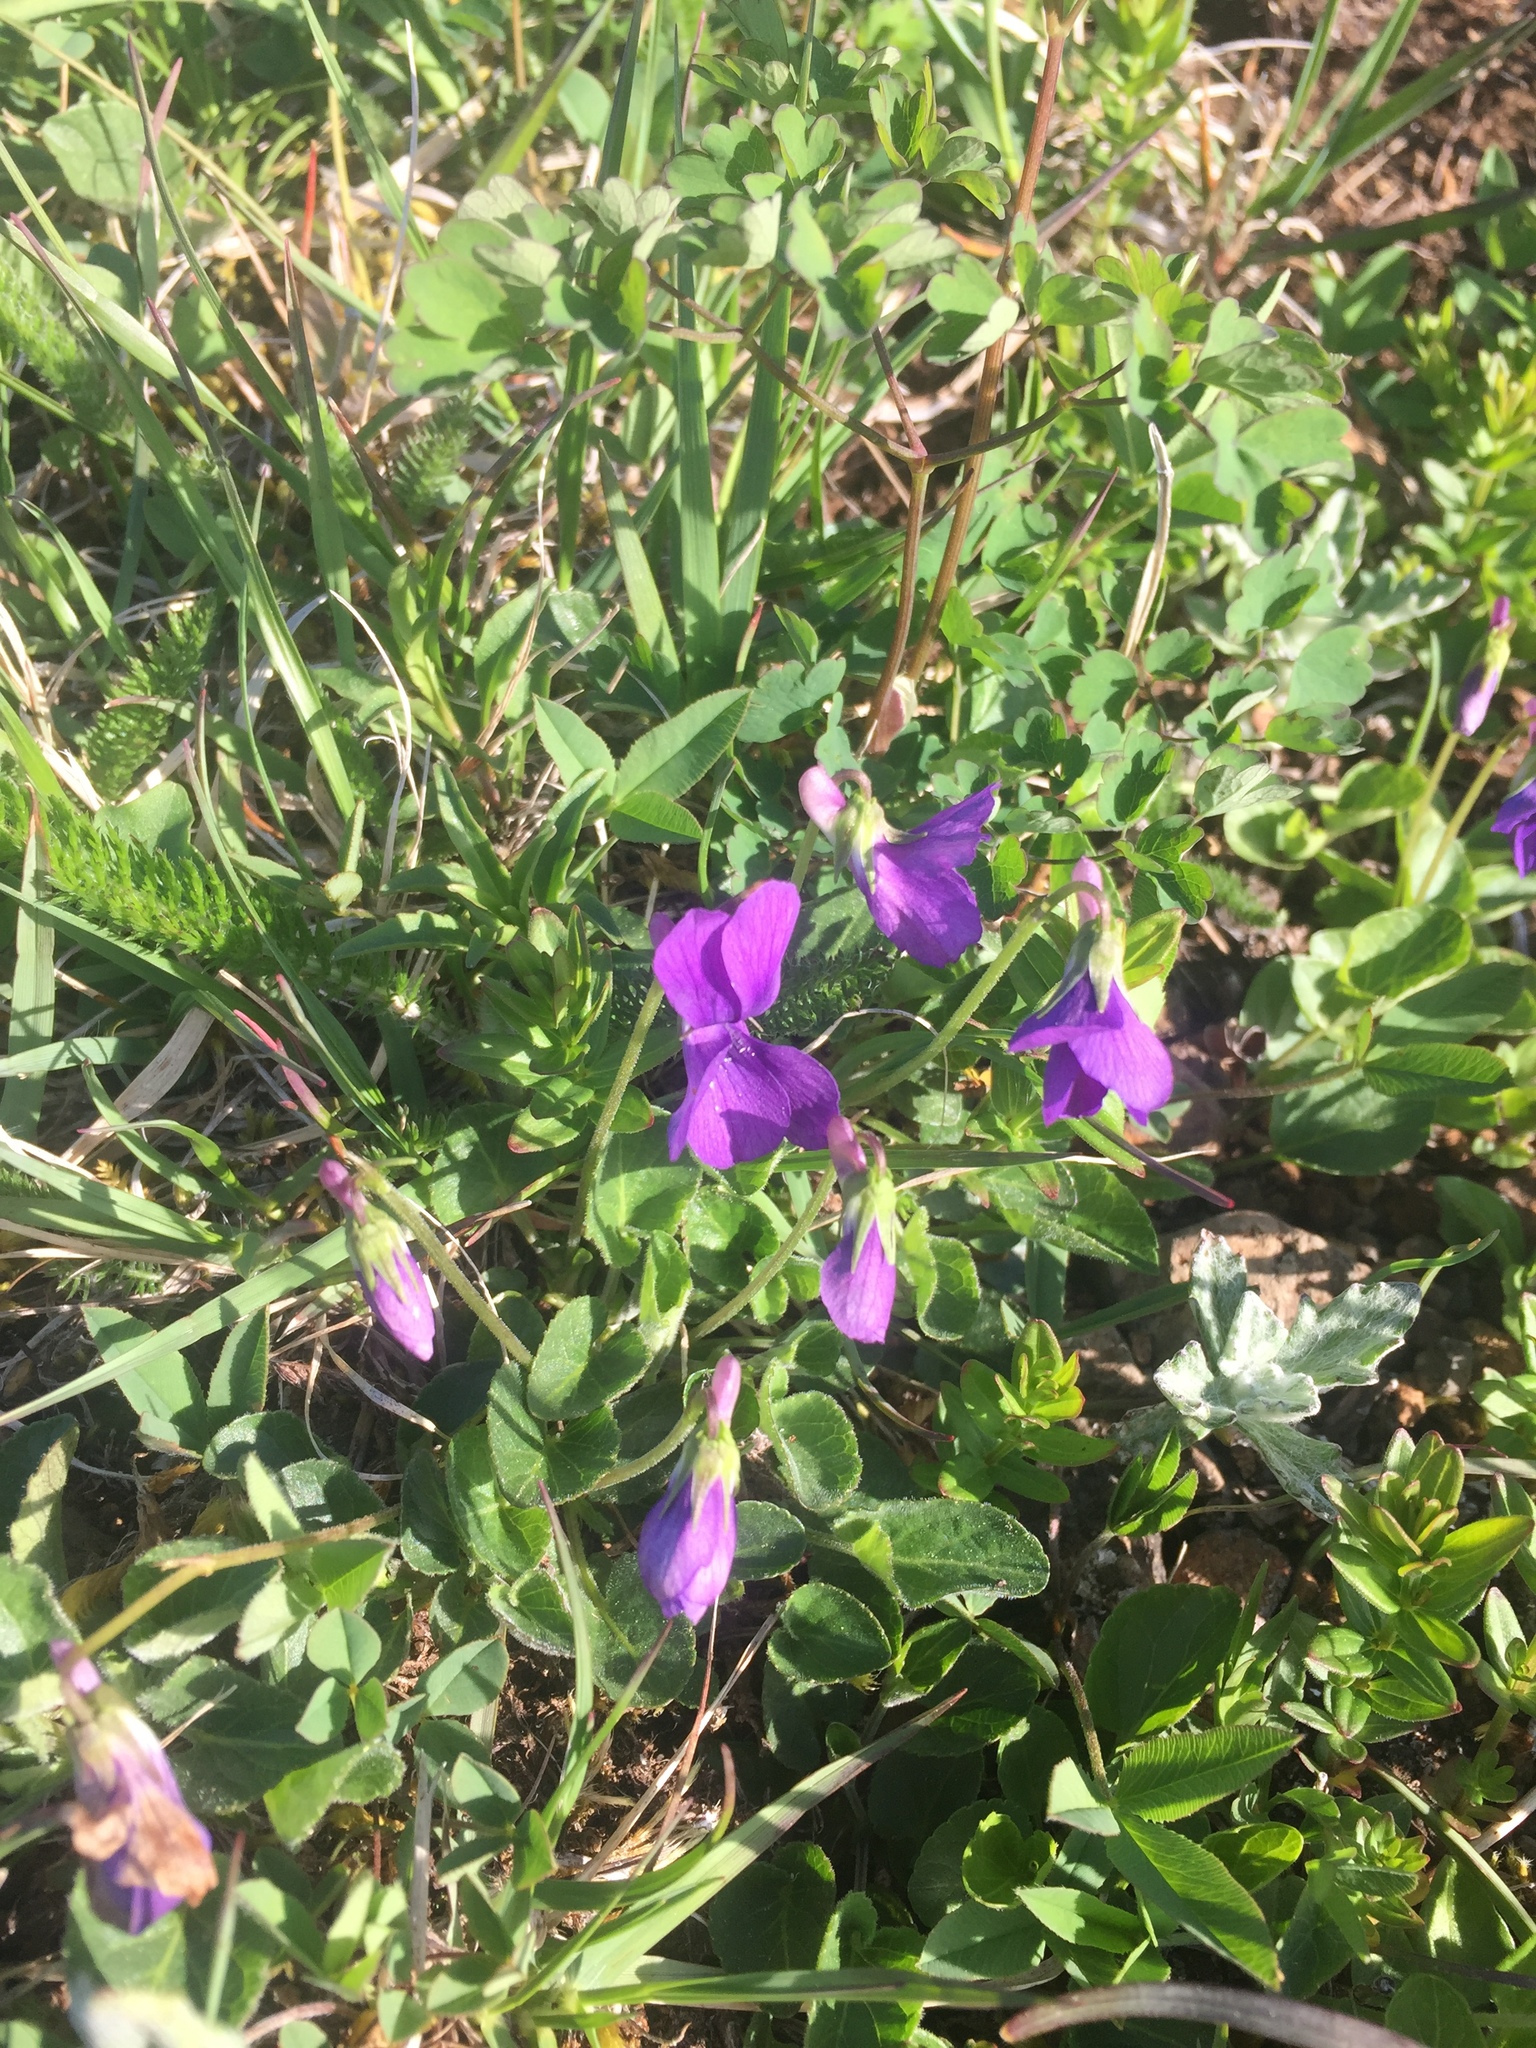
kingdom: Plantae
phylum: Tracheophyta
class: Magnoliopsida
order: Malpighiales
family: Violaceae
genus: Viola
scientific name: Viola adunca
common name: Sand violet
